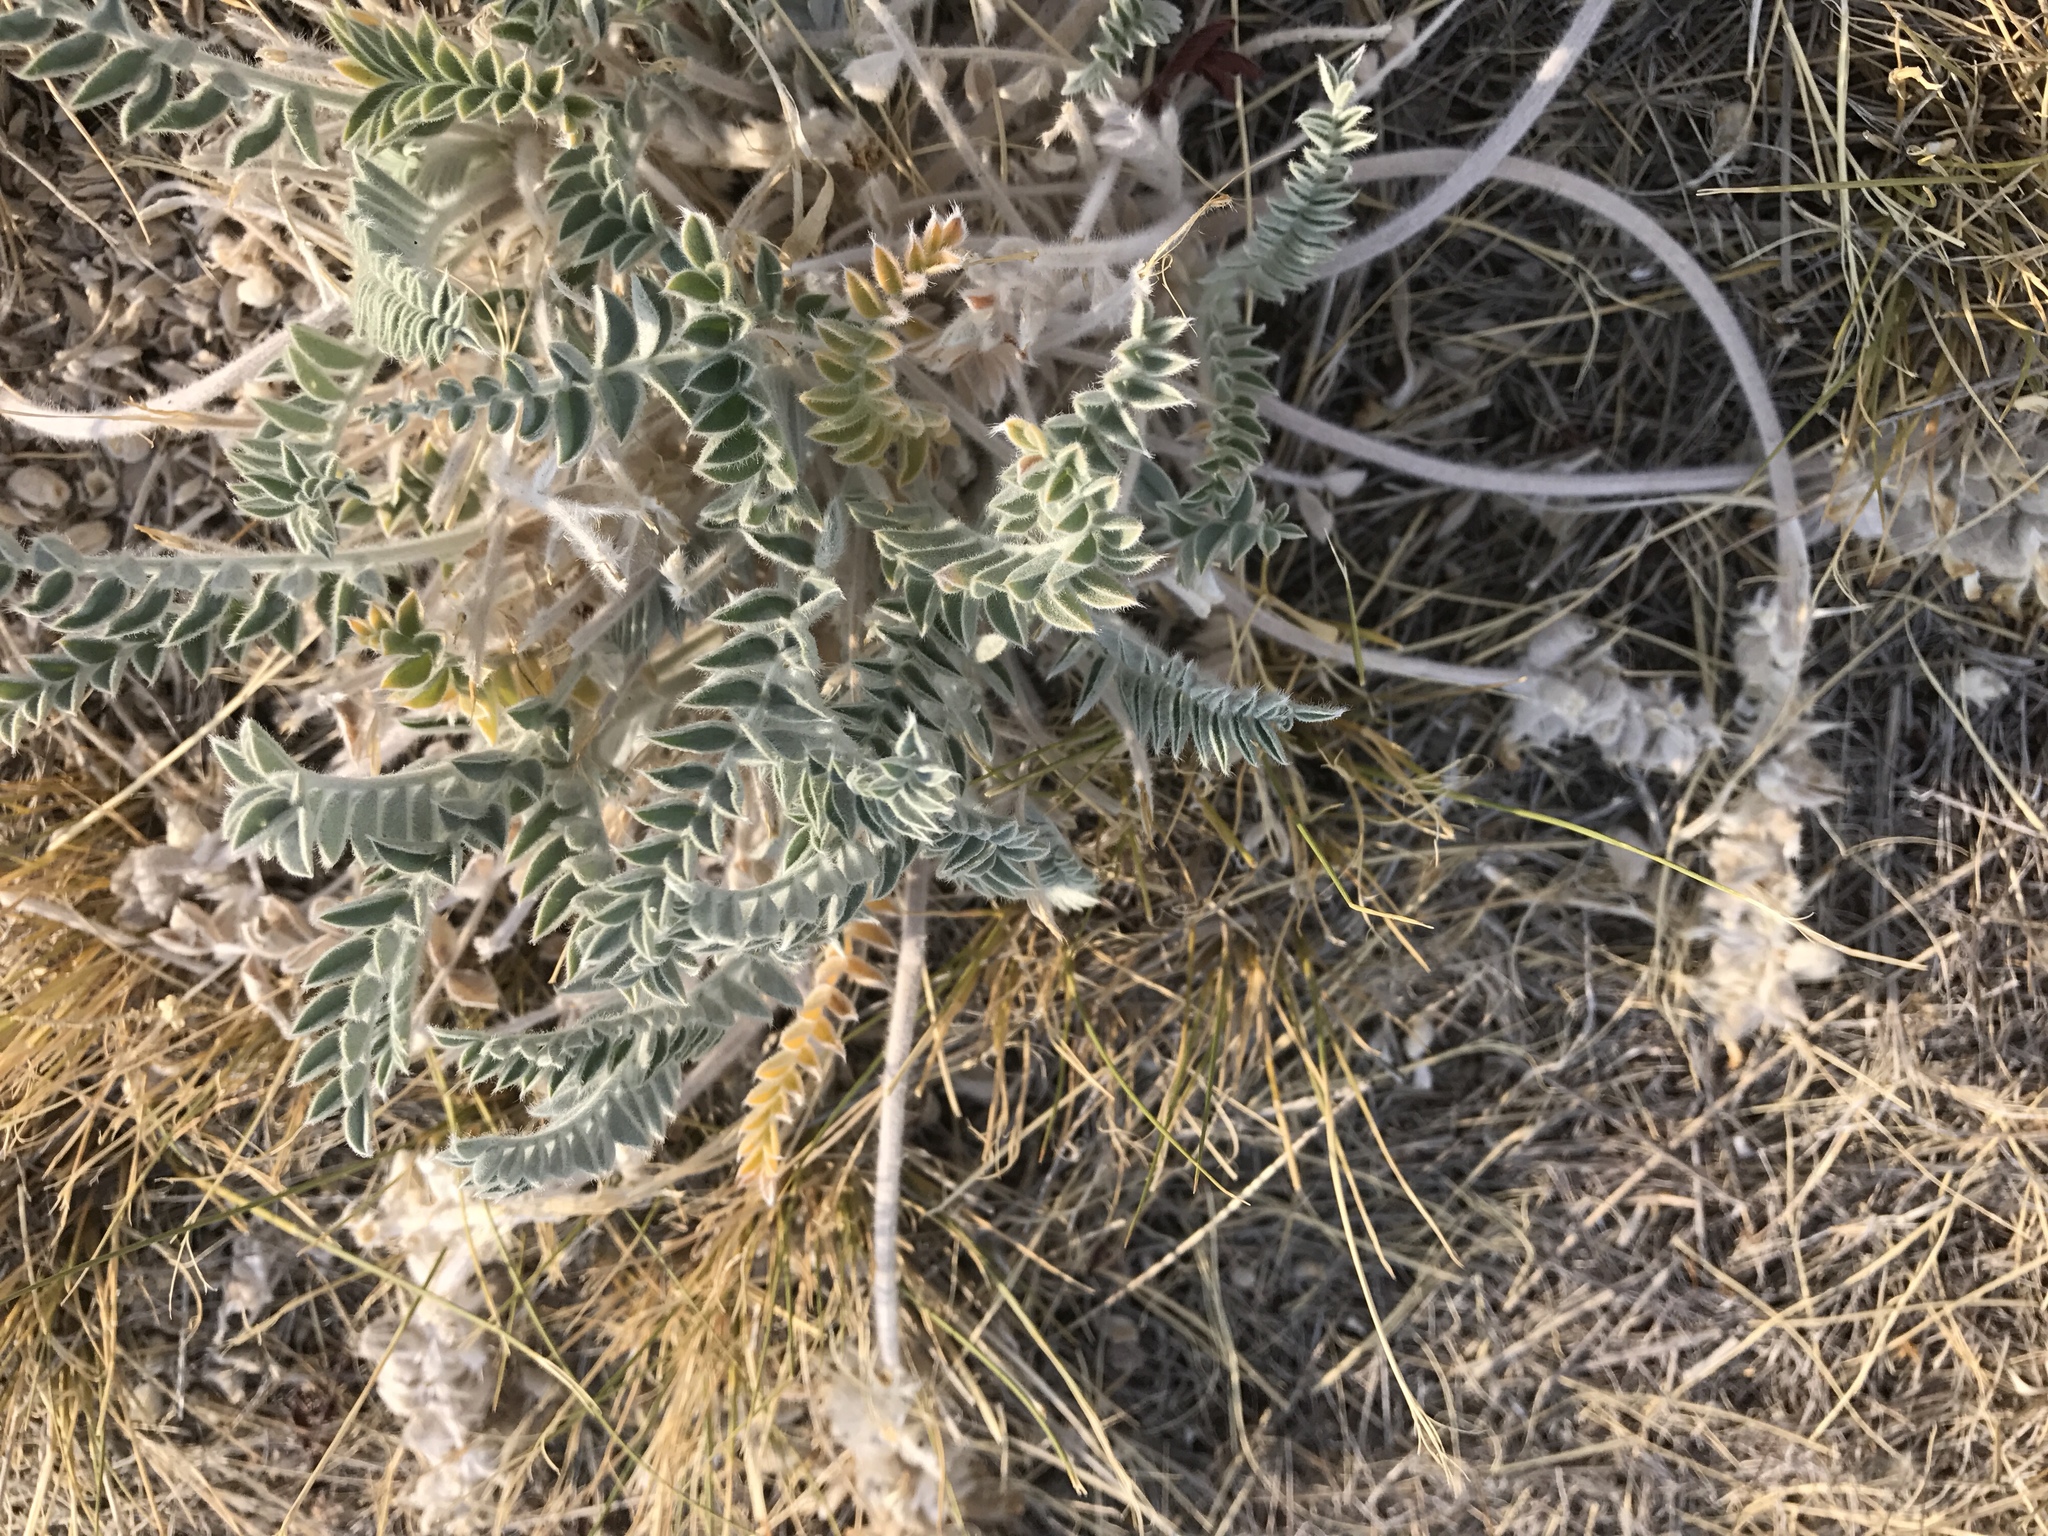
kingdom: Plantae
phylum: Tracheophyta
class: Magnoliopsida
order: Fabales
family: Fabaceae
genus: Astragalus
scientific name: Astragalus mollissimus
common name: Woolly locoweed
